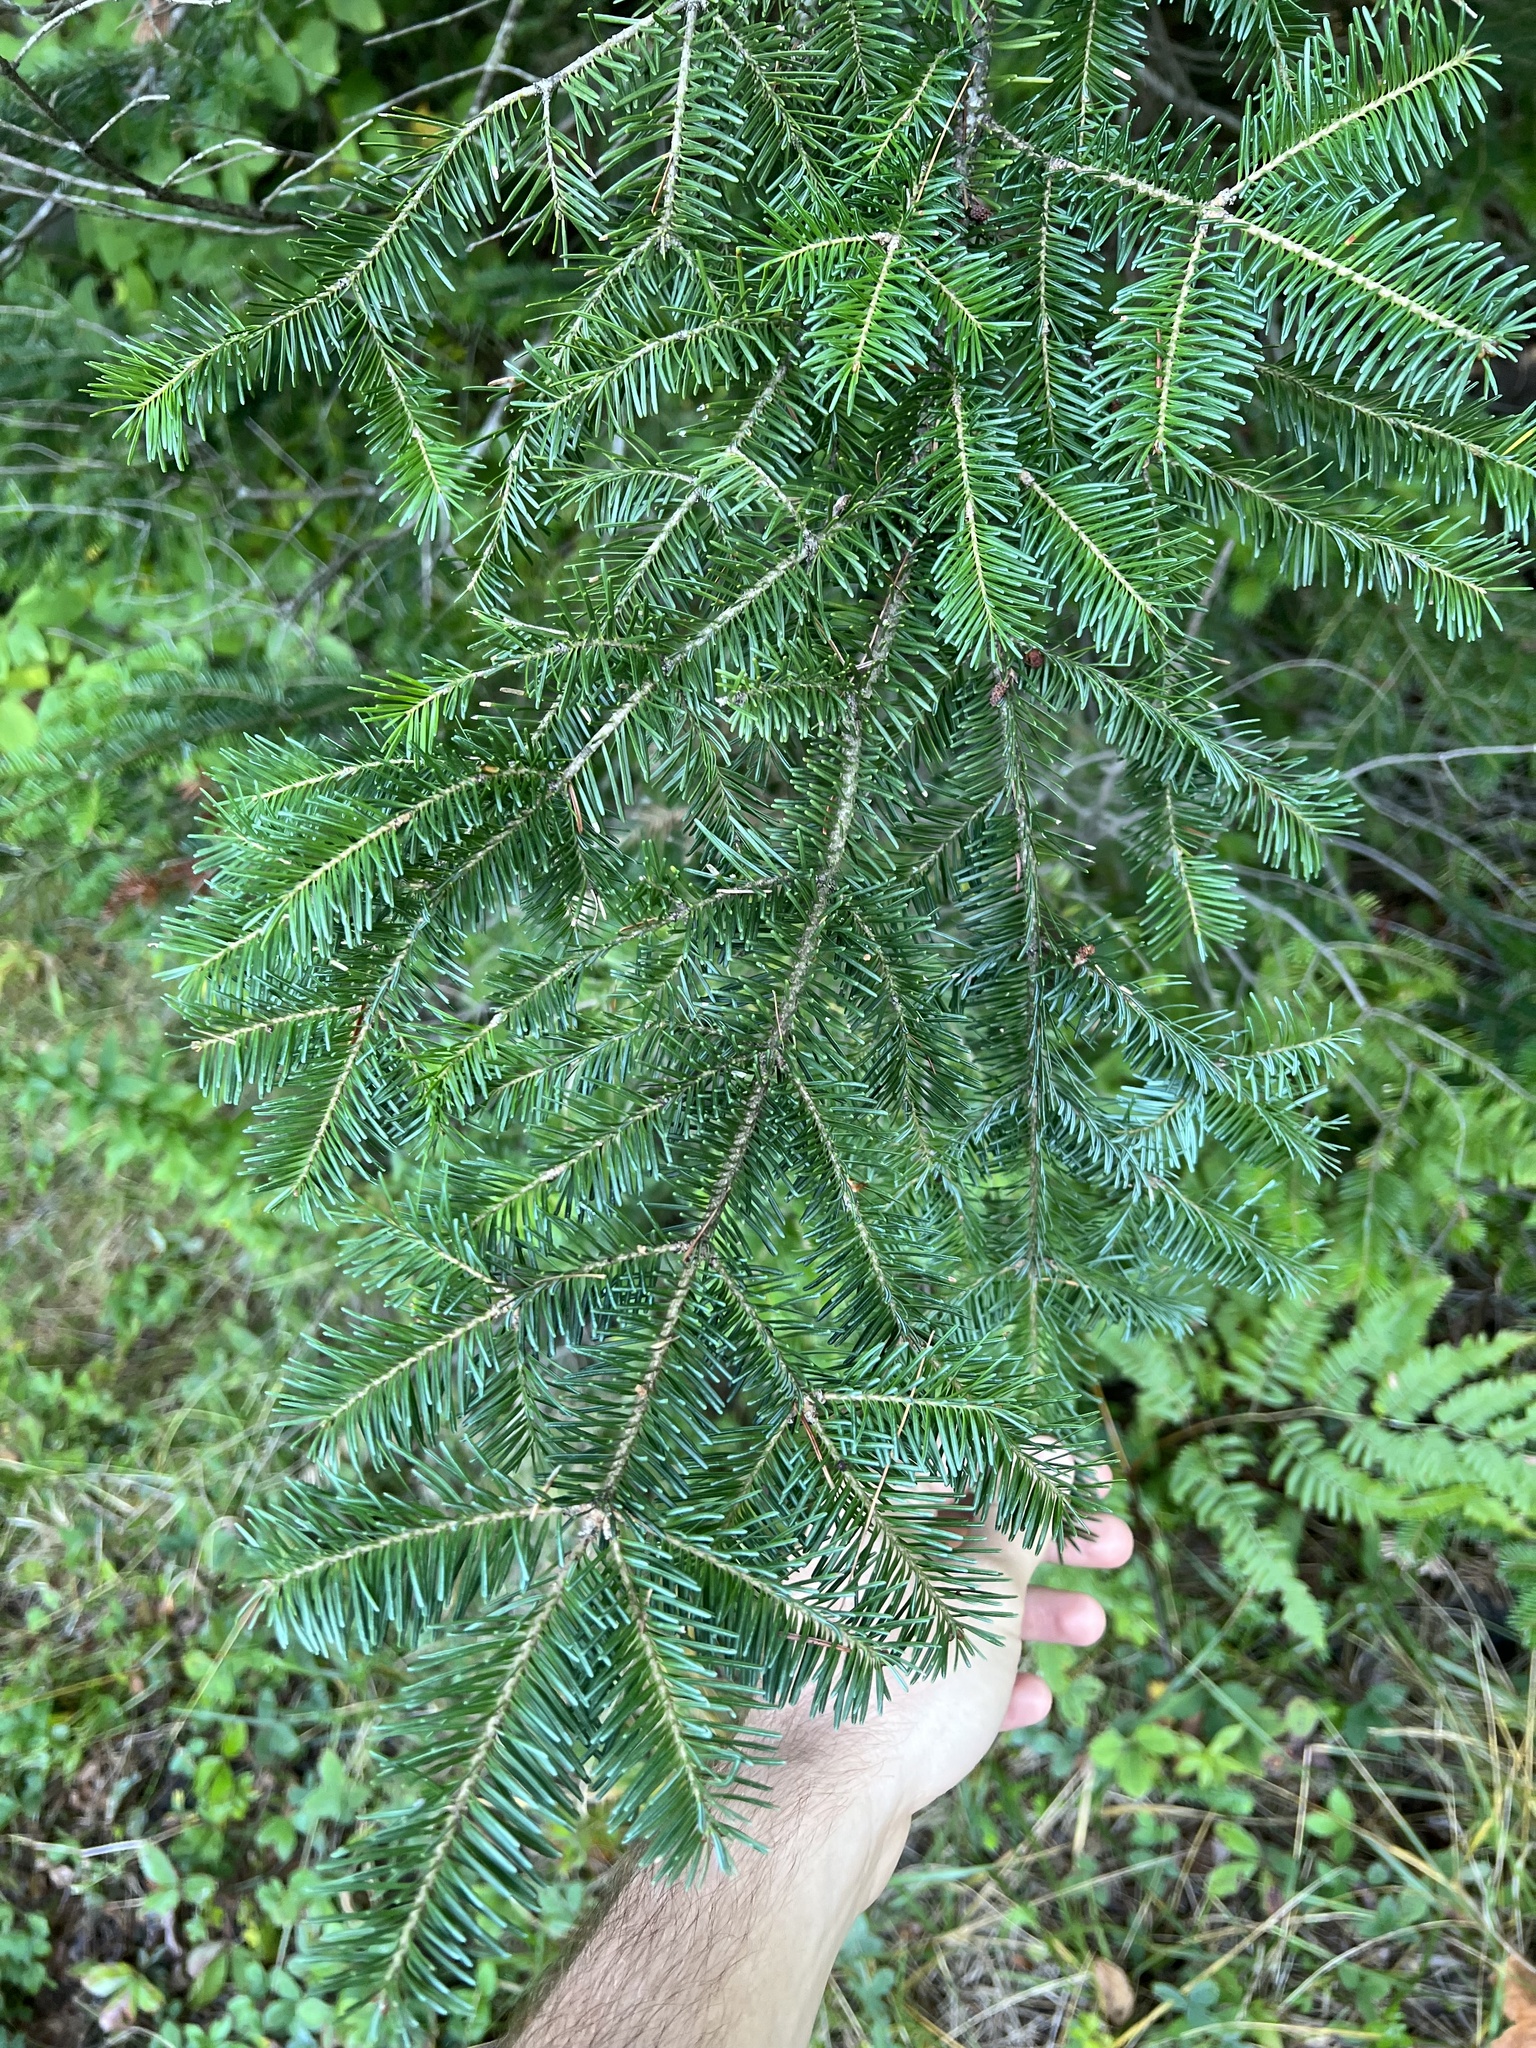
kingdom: Plantae
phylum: Tracheophyta
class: Pinopsida
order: Pinales
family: Pinaceae
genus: Abies
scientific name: Abies balsamea
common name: Balsam fir
